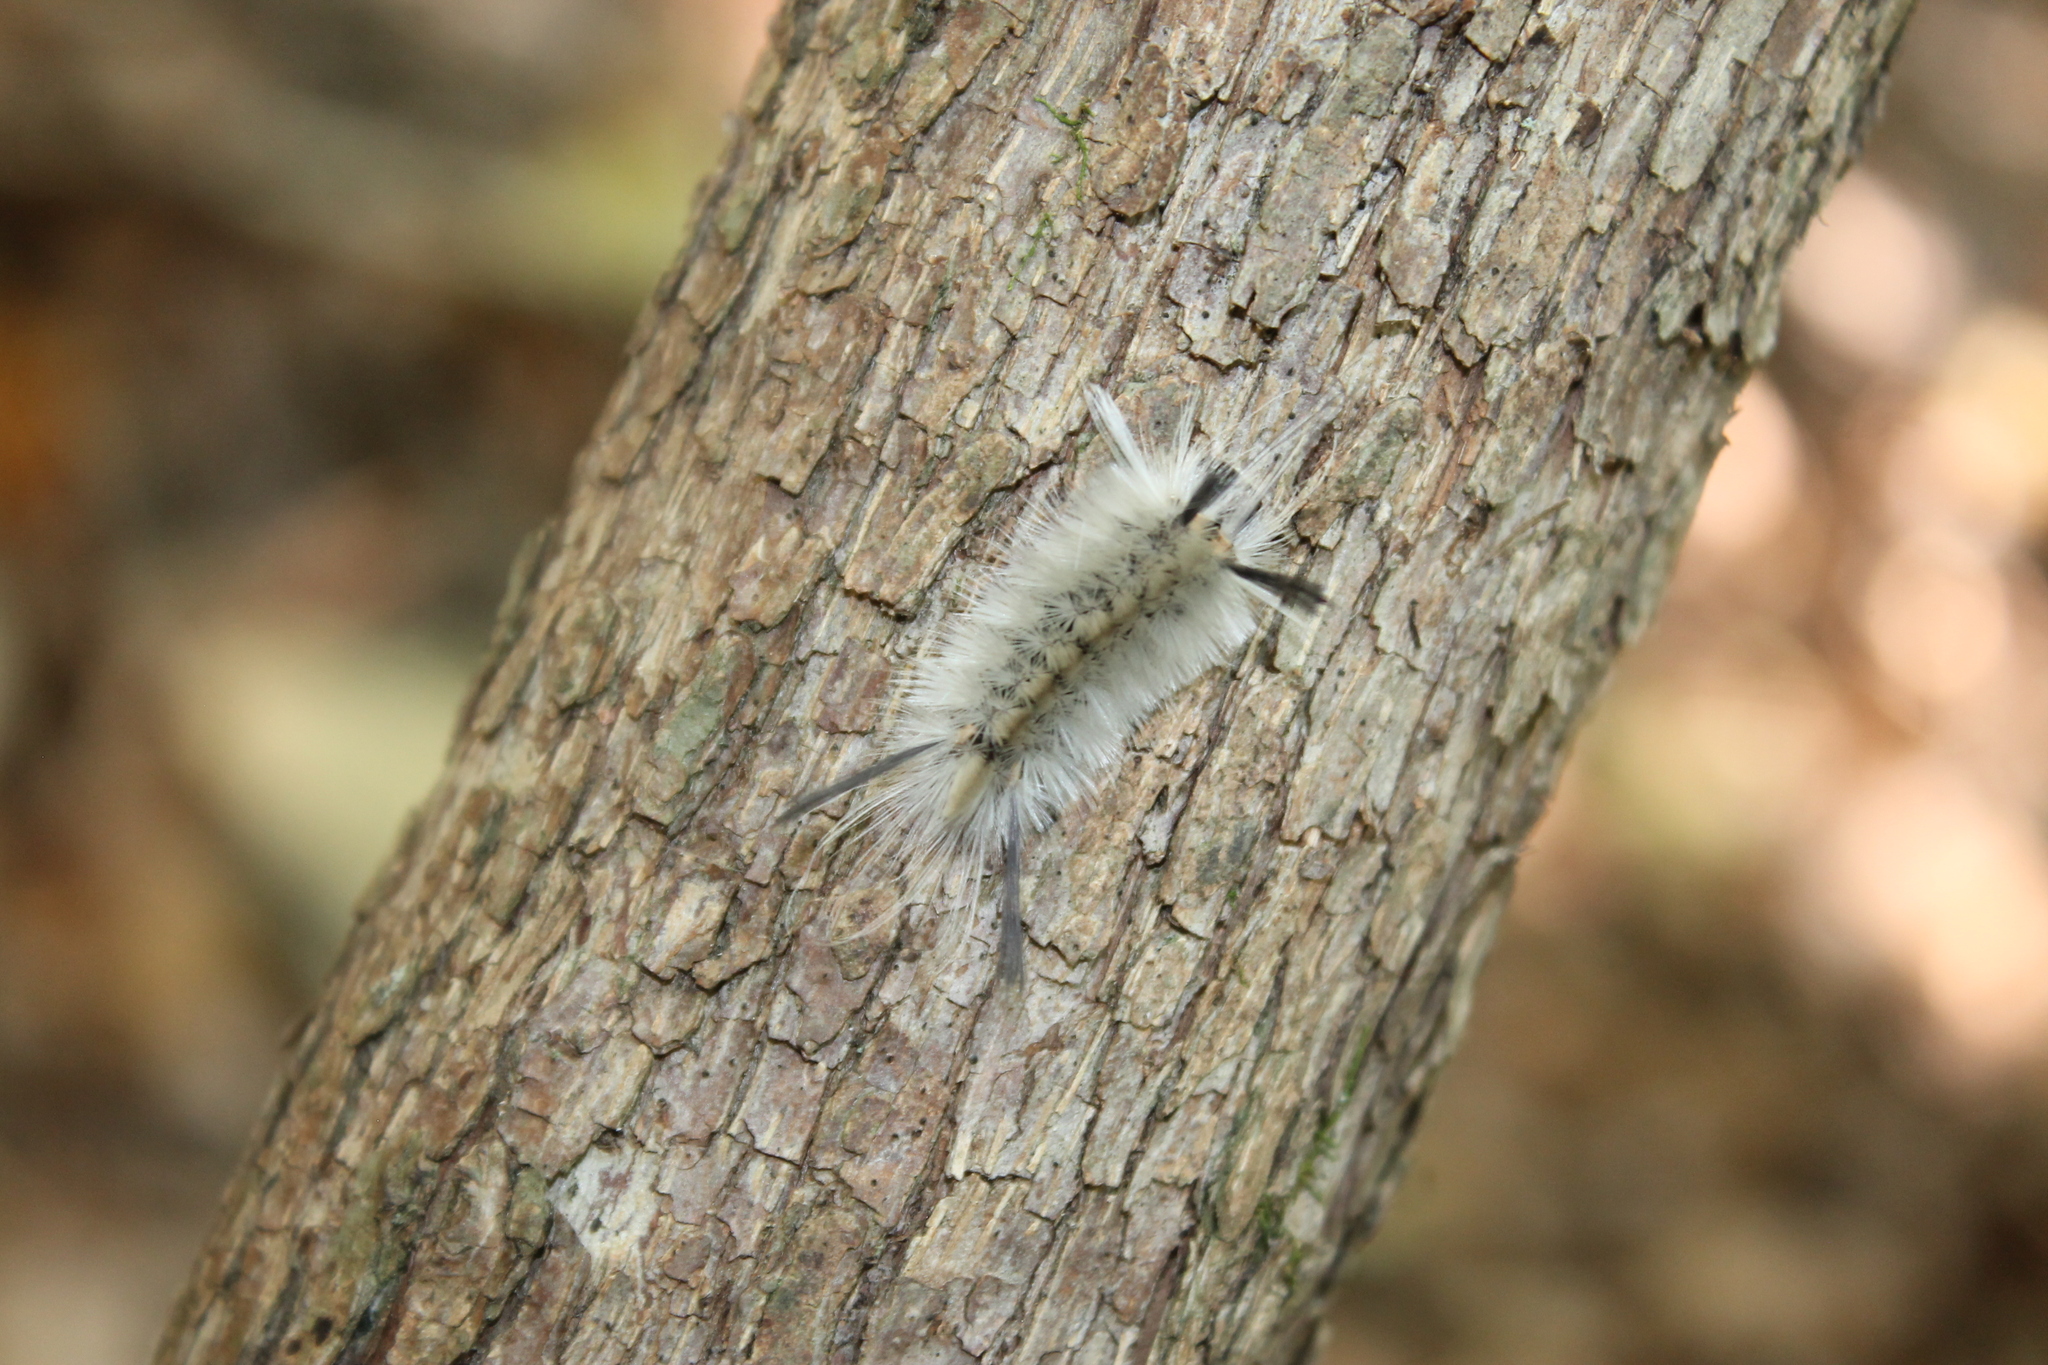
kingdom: Animalia
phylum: Arthropoda
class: Insecta
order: Lepidoptera
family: Erebidae
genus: Halysidota
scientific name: Halysidota tessellaris
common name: Banded tussock moth
